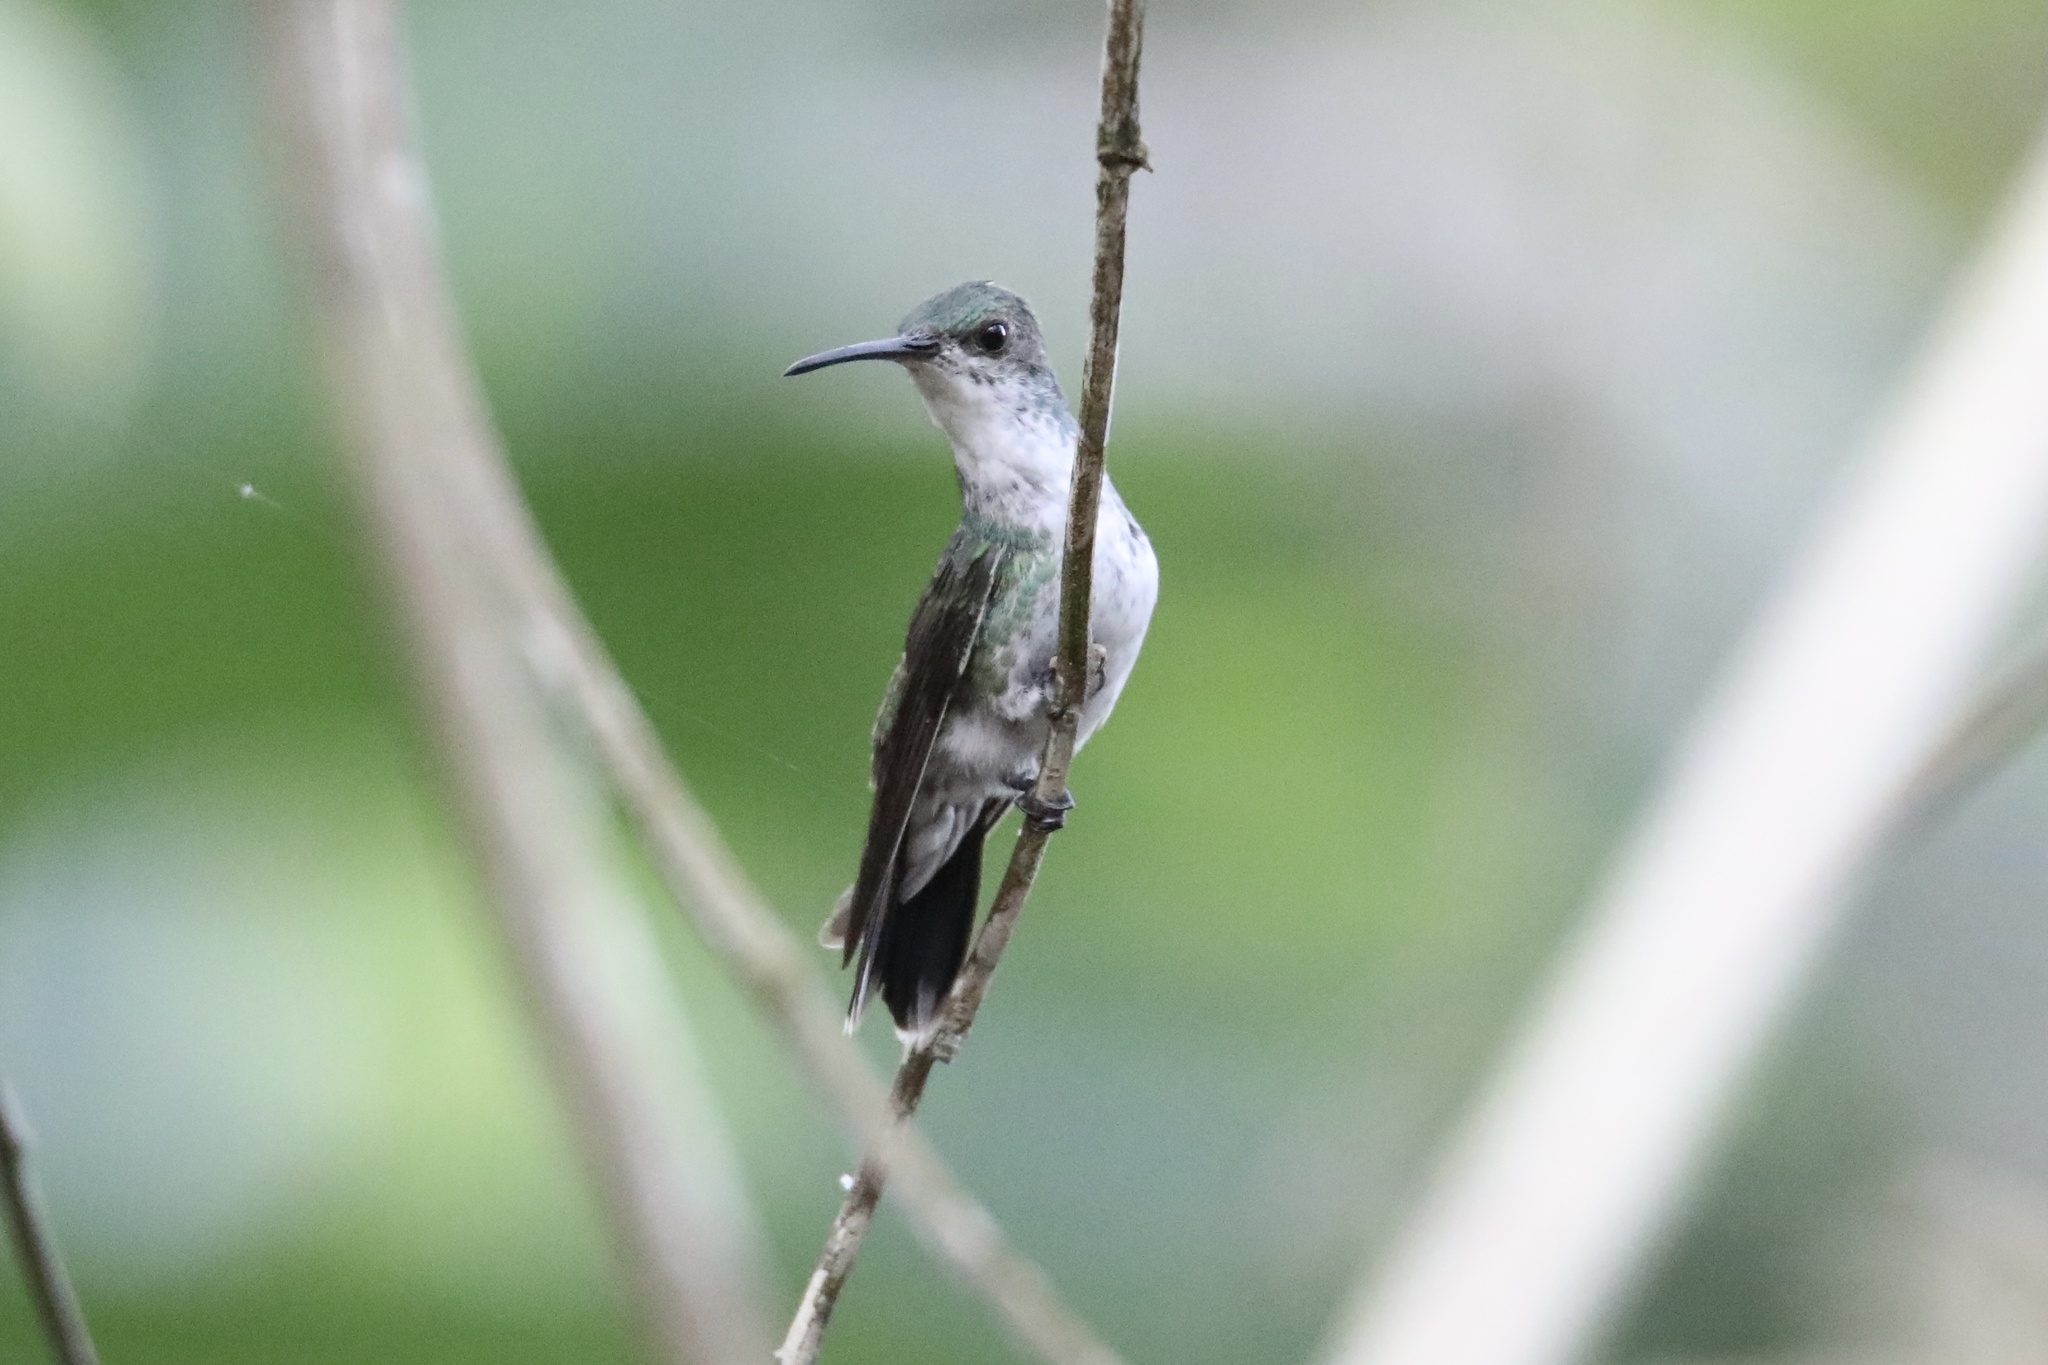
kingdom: Animalia
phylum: Chordata
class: Aves
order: Apodiformes
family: Trochilidae
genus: Chrysuronia
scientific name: Chrysuronia coeruleogularis
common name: Sapphire-throated hummingbird
